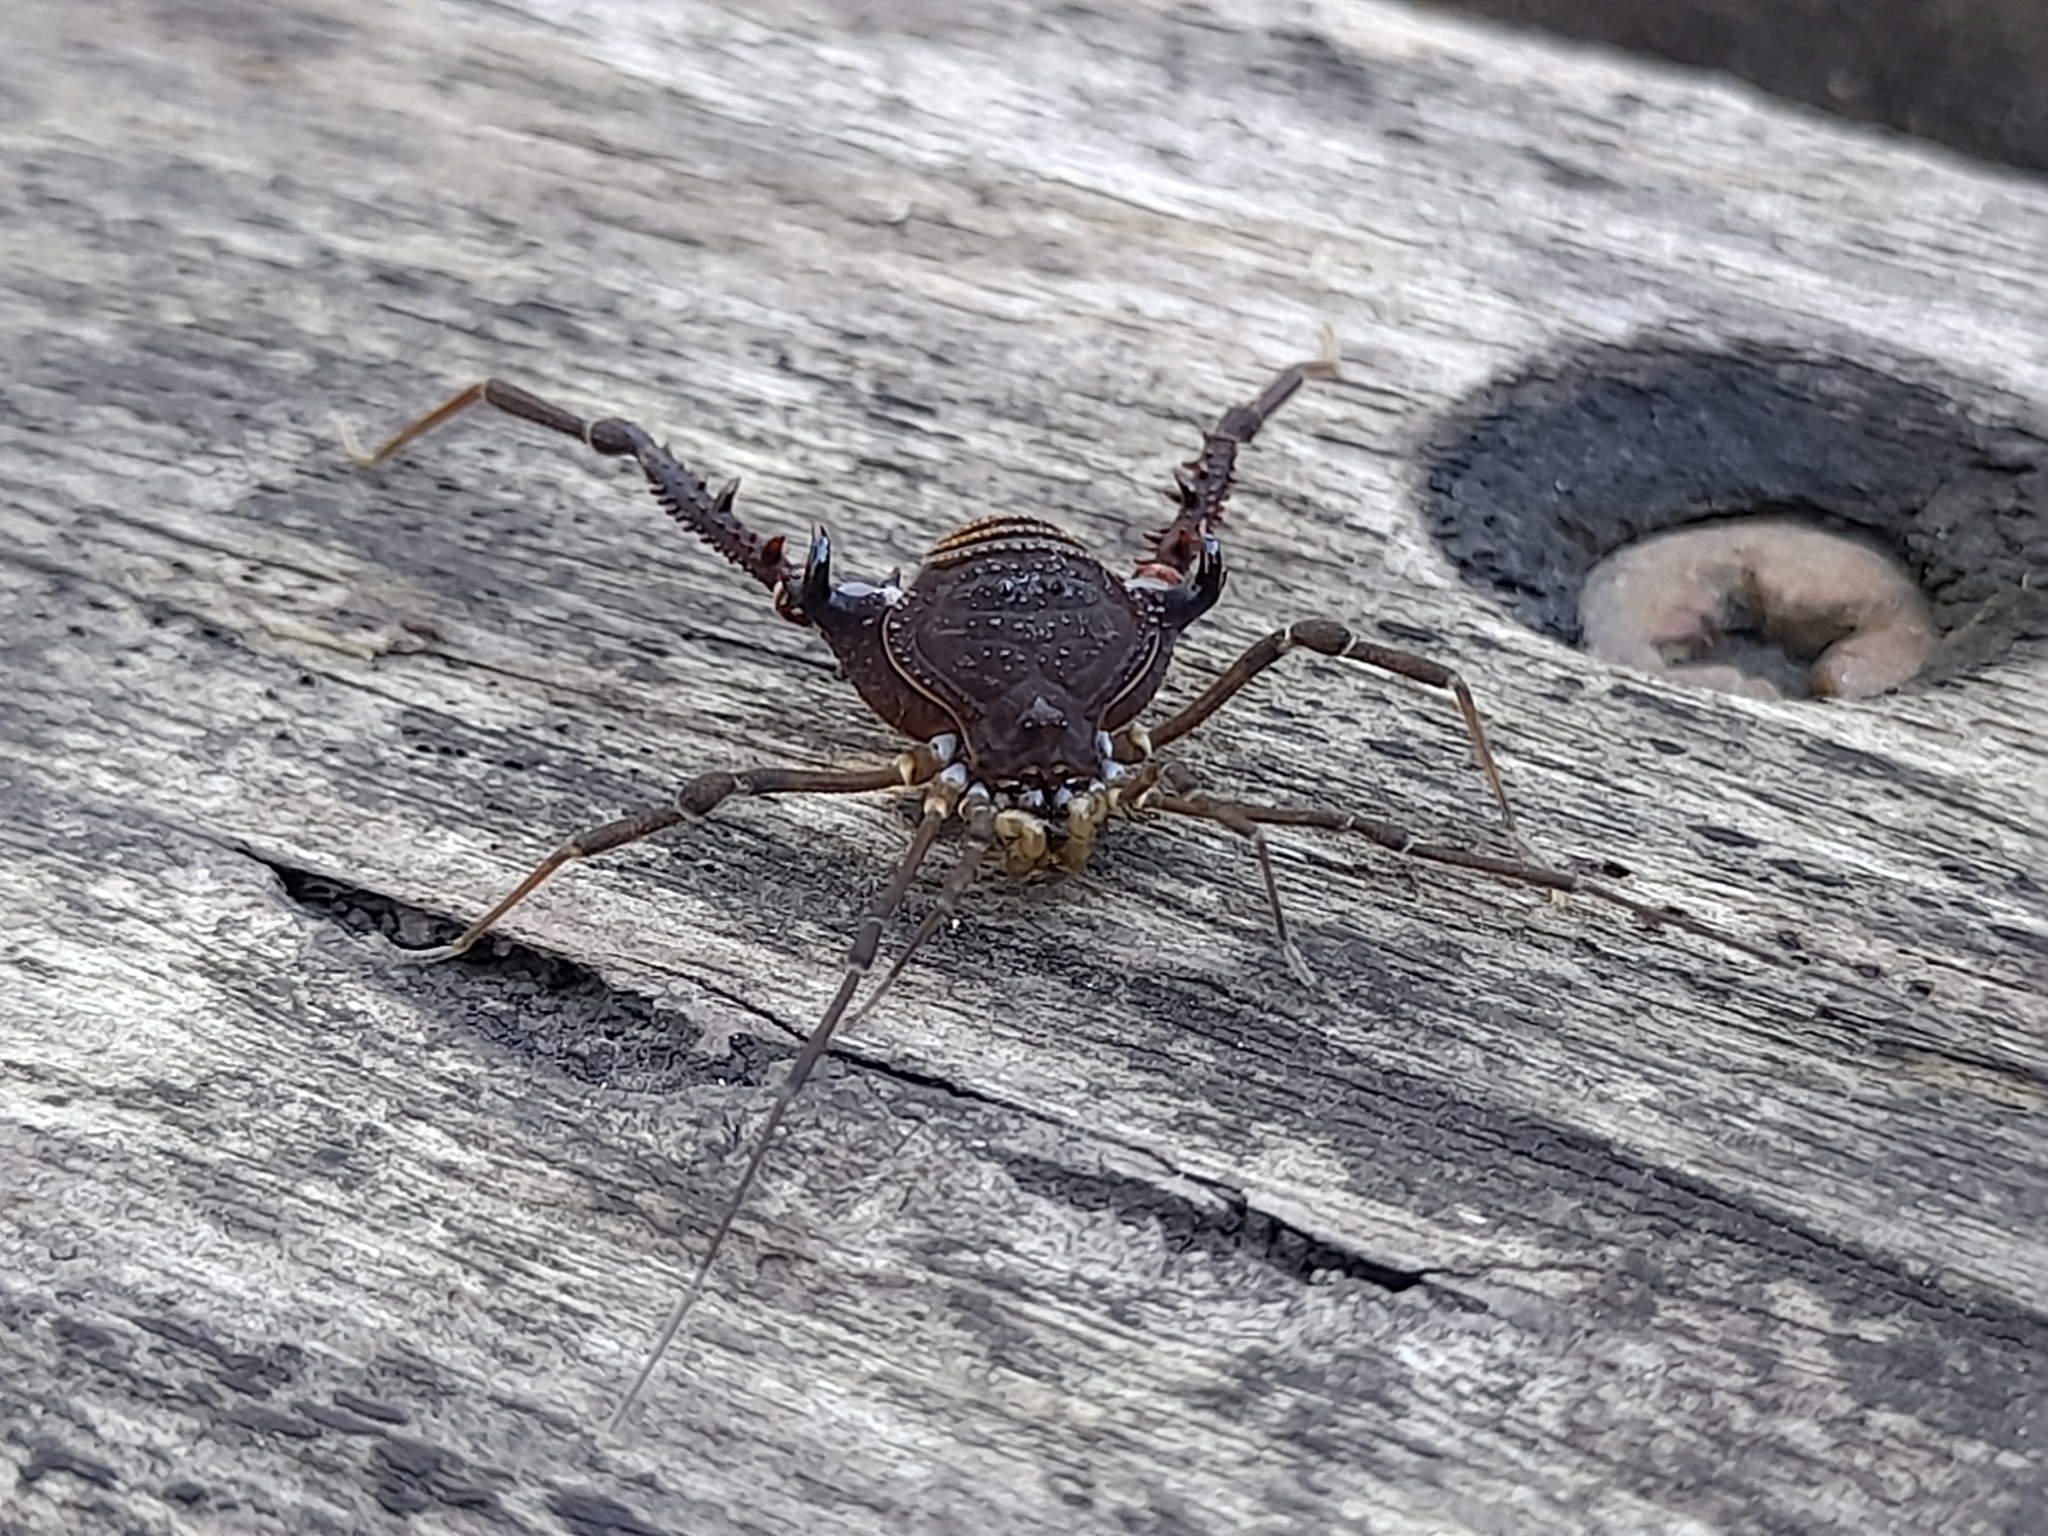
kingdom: Animalia
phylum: Arthropoda
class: Arachnida
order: Opiliones
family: Gonyleptidae
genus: Opisthoplatus
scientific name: Opisthoplatus prospicuus
